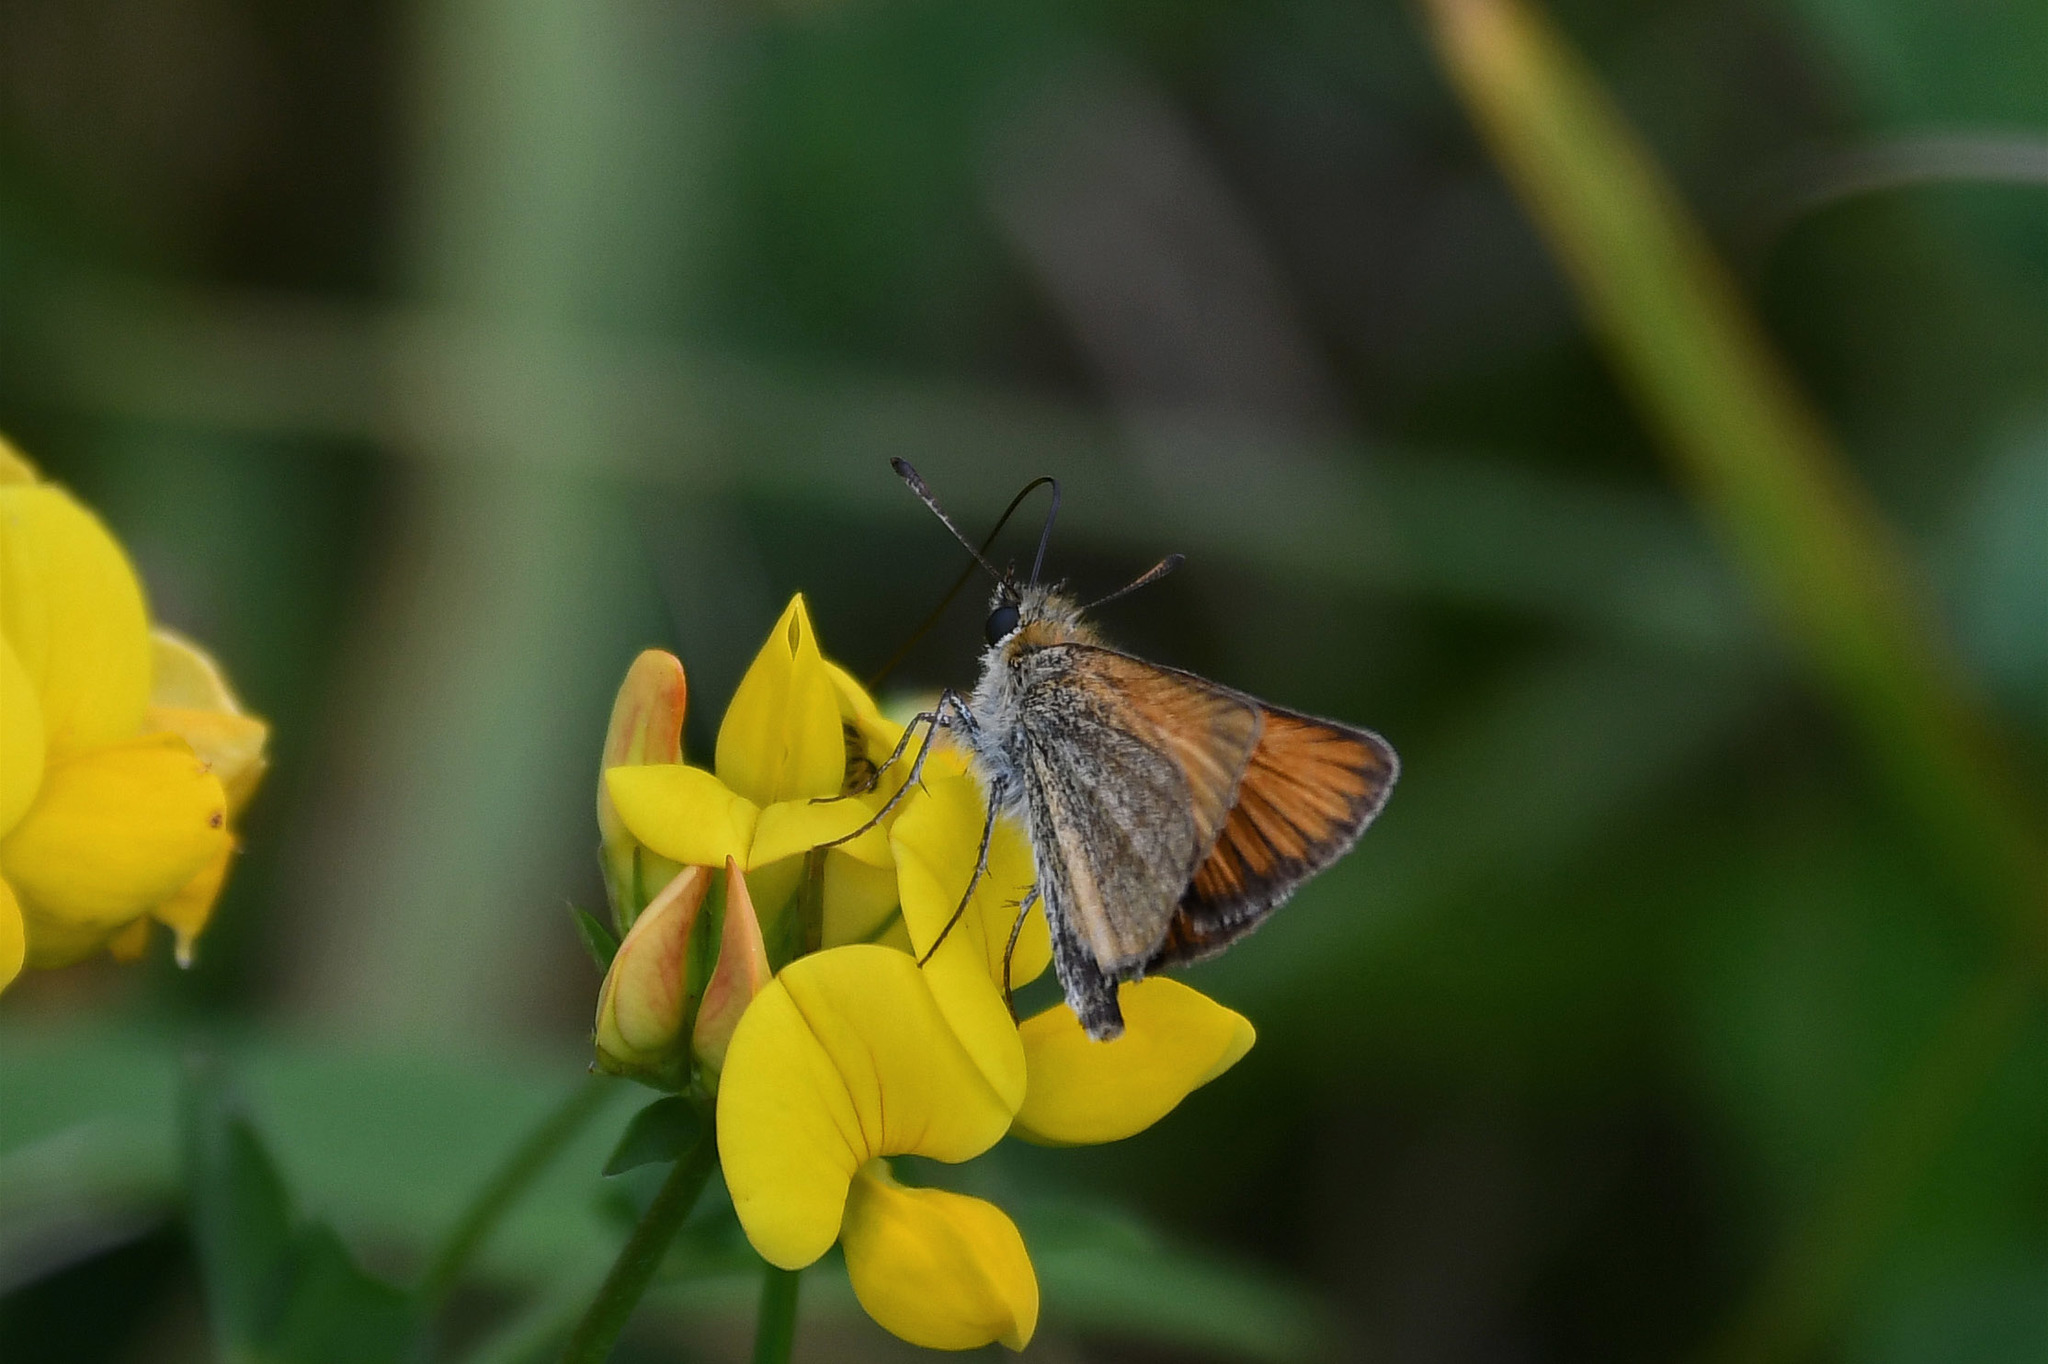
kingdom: Animalia
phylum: Arthropoda
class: Insecta
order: Lepidoptera
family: Hesperiidae
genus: Thymelicus
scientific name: Thymelicus lineola
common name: Essex skipper
